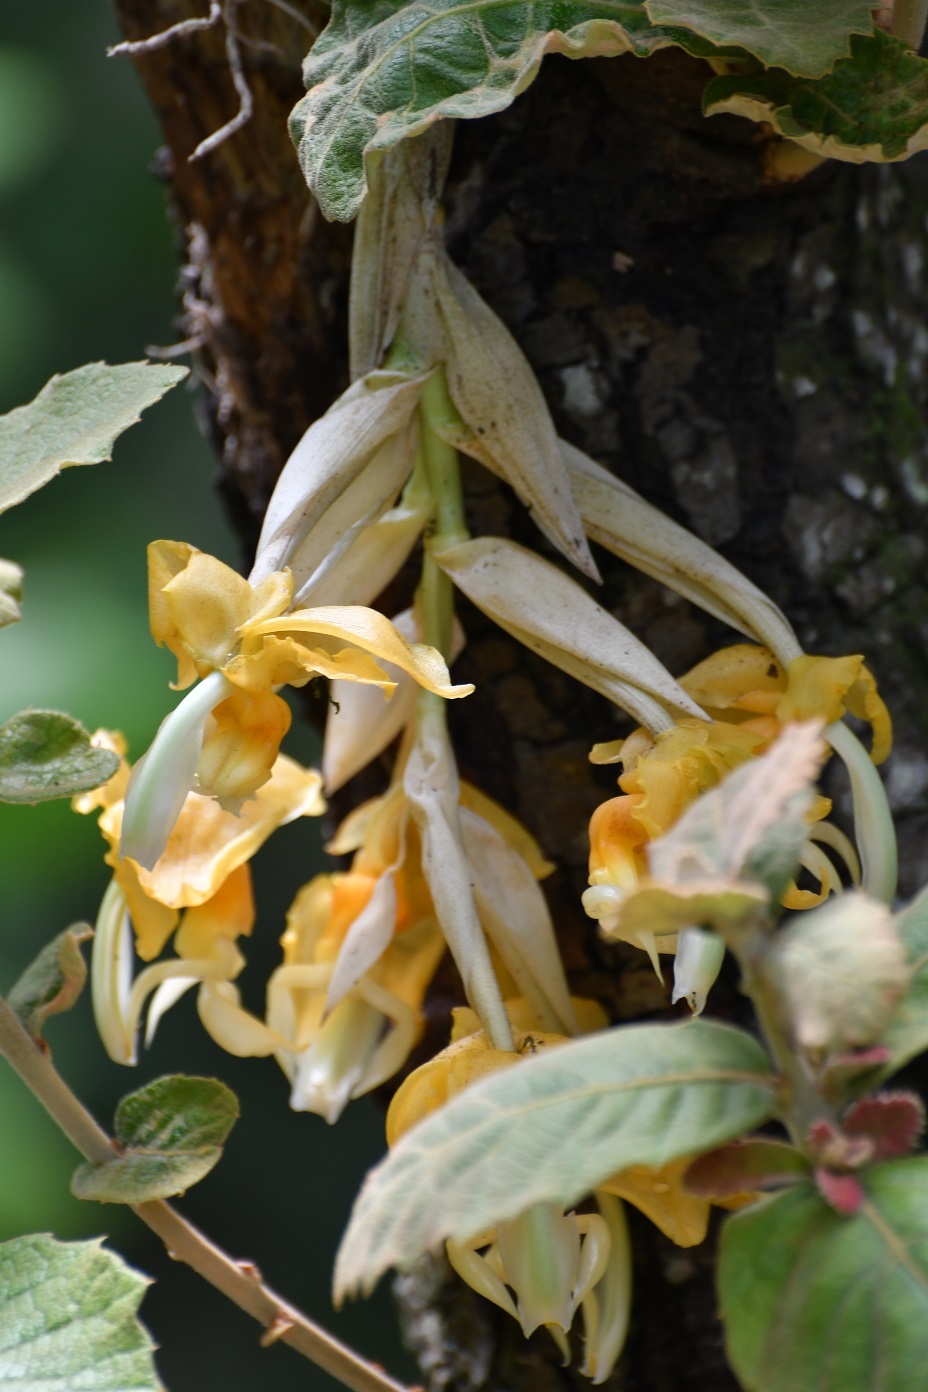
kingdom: Plantae
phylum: Tracheophyta
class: Liliopsida
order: Asparagales
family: Orchidaceae
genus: Stanhopea
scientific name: Stanhopea saccata
